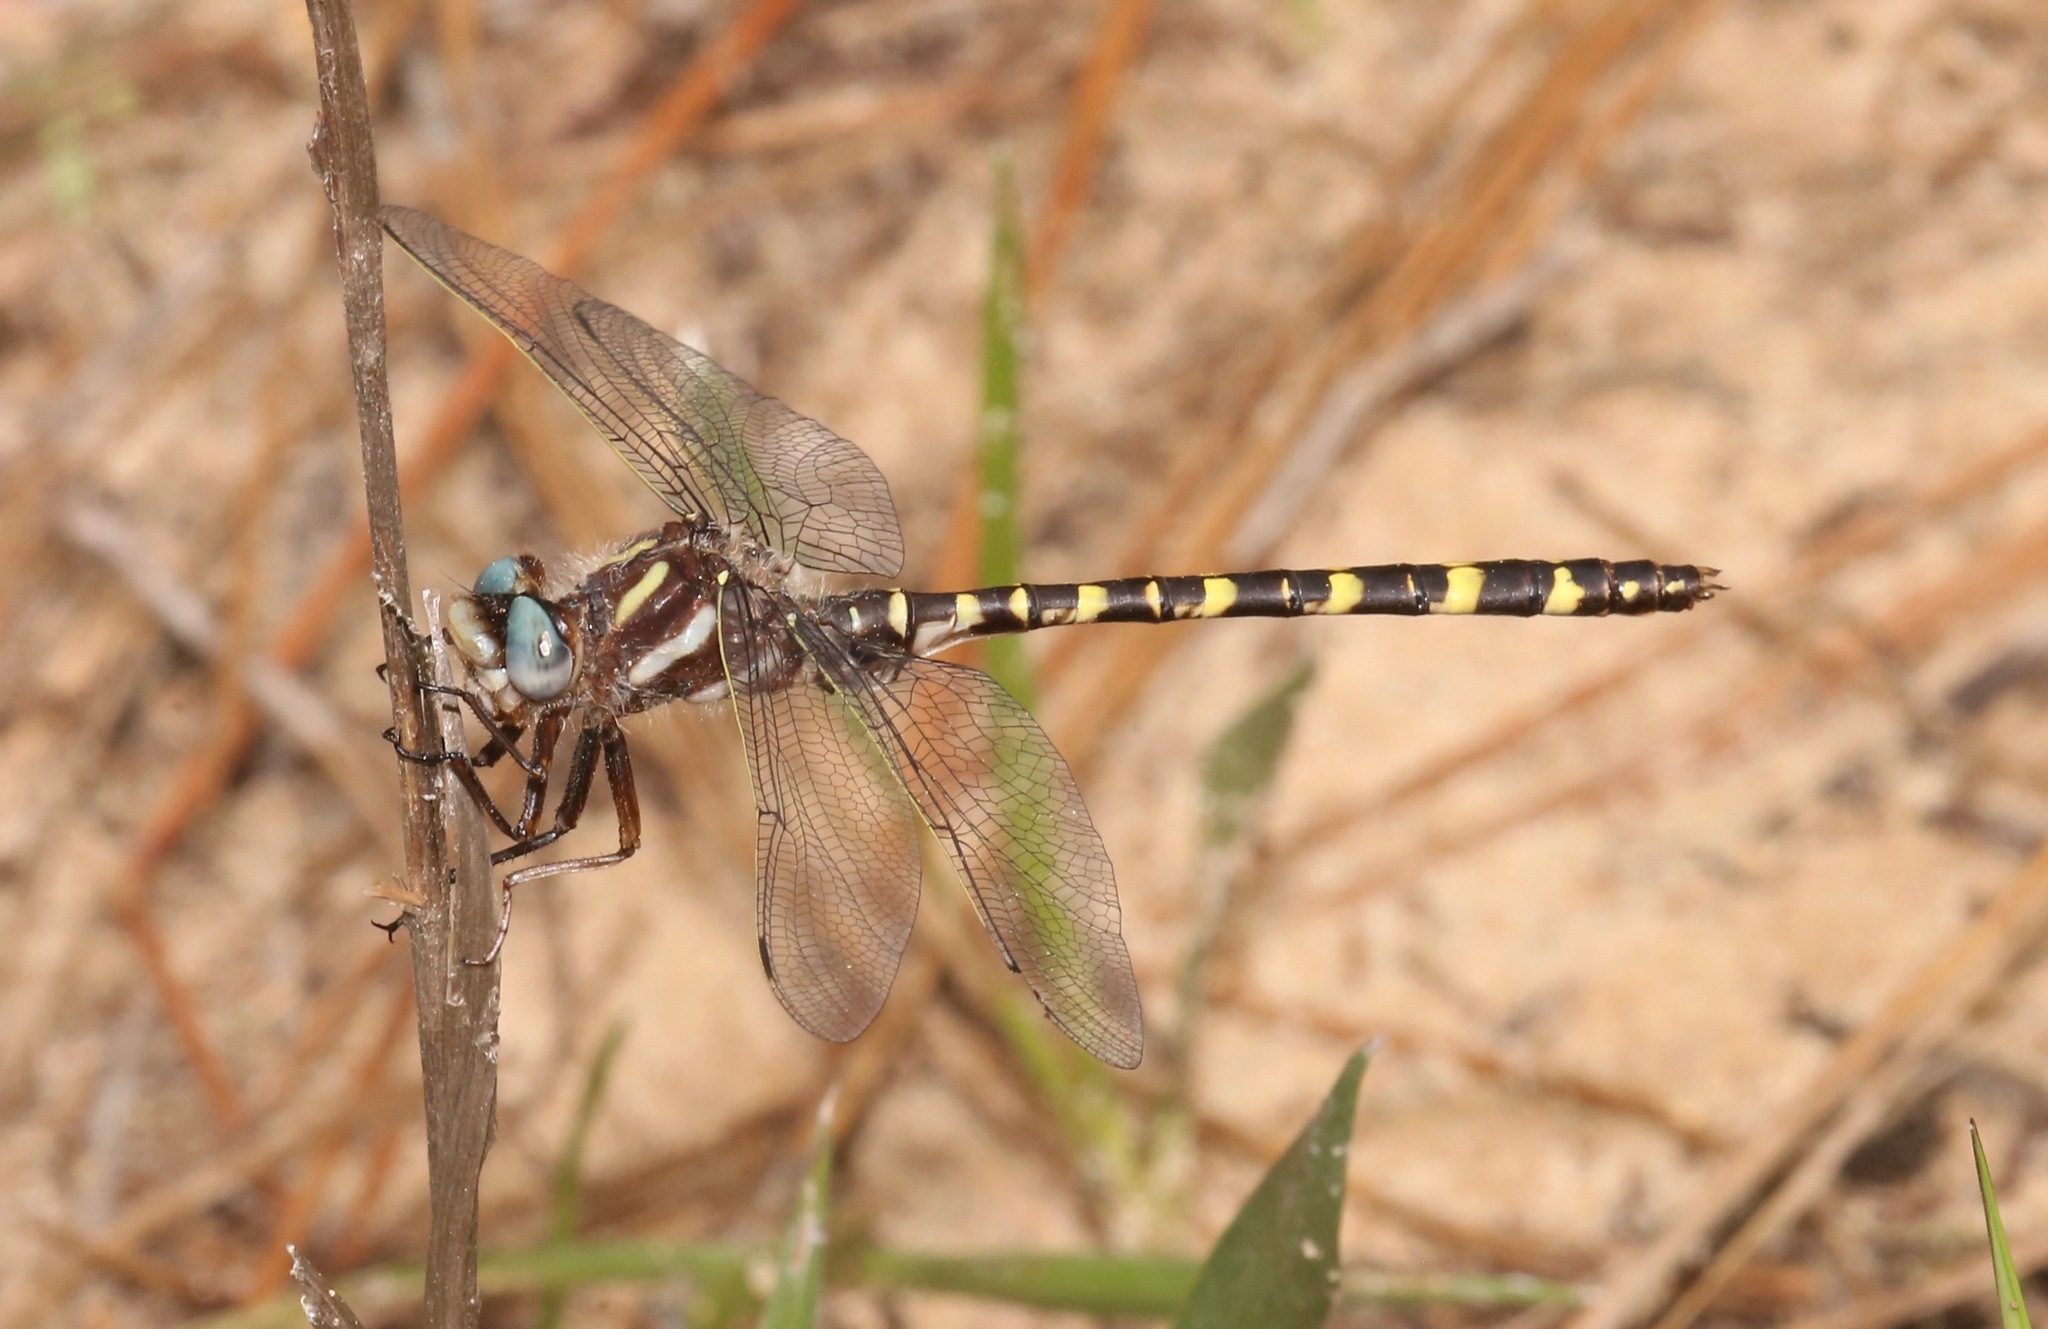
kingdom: Animalia
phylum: Arthropoda
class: Insecta
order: Odonata
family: Cordulegastridae
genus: Cordulegaster
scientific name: Cordulegaster sarracenia
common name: Sarracenia spiketail
